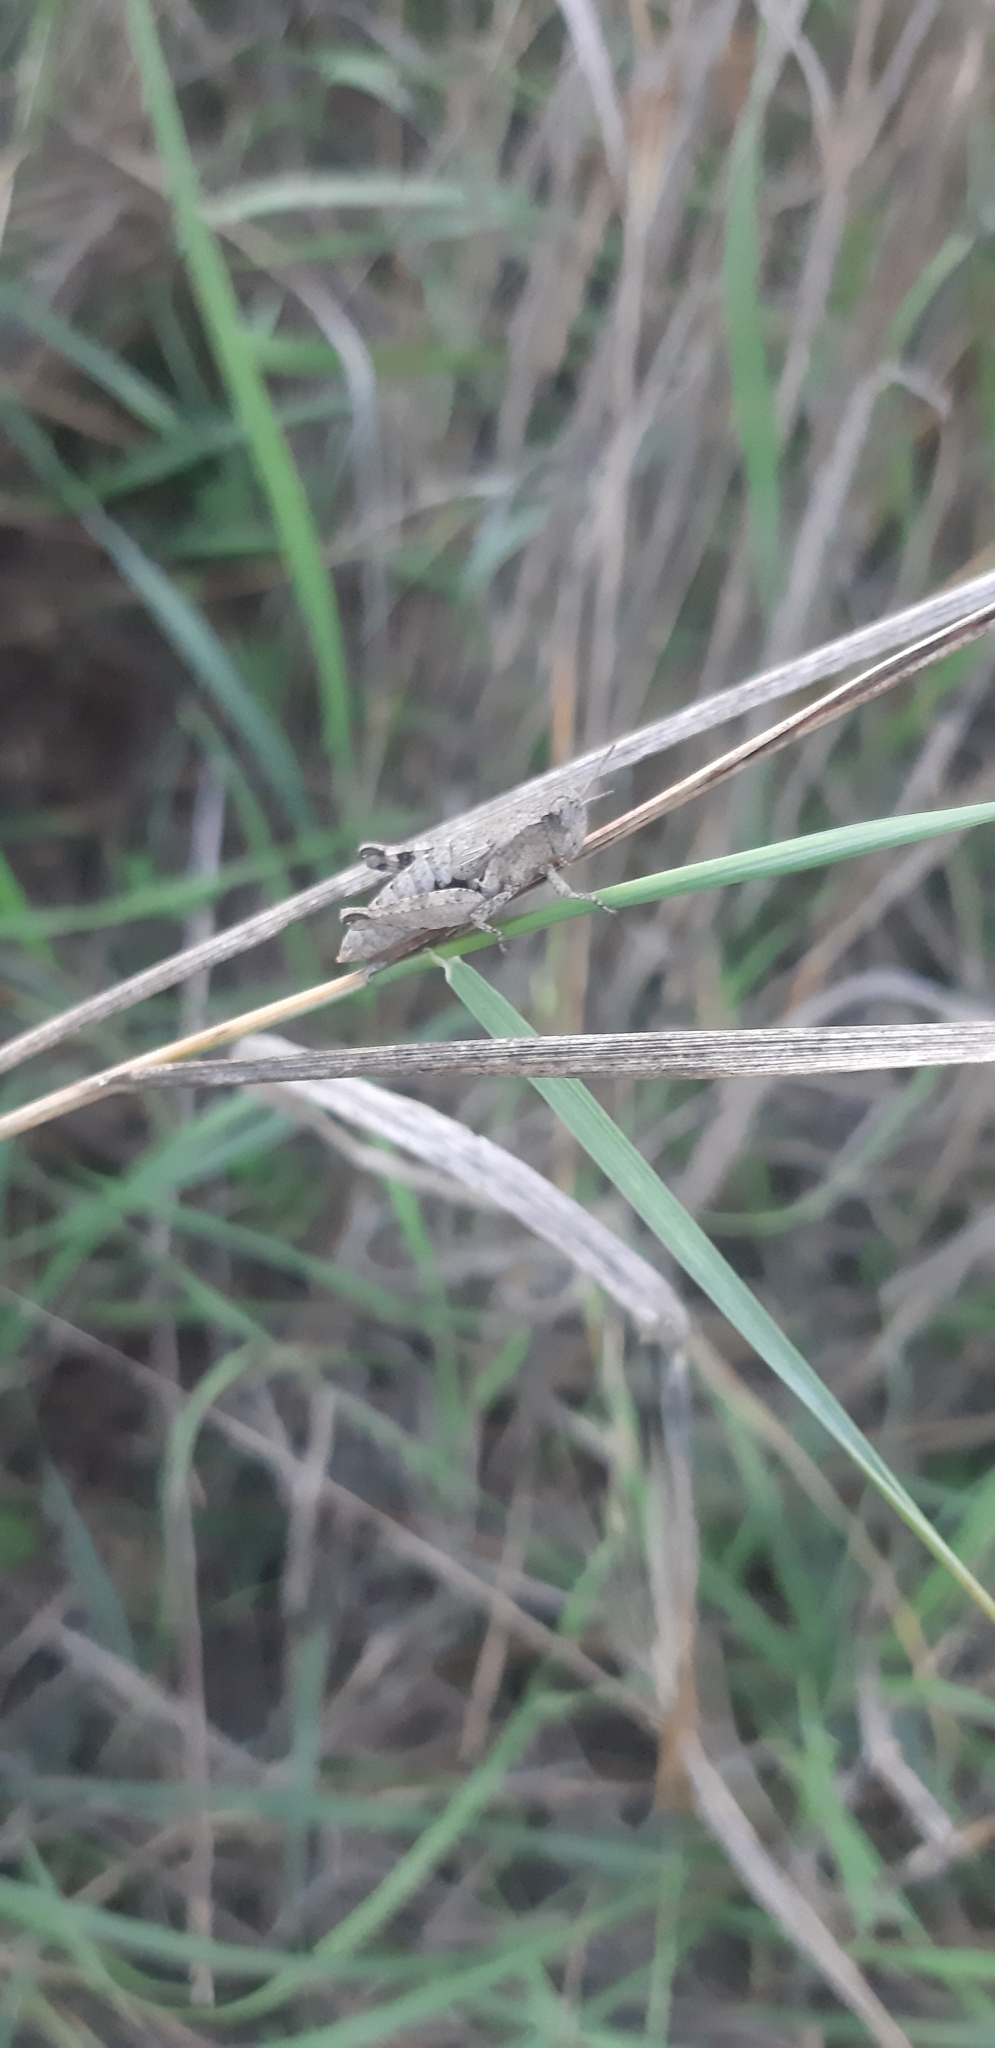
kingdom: Animalia
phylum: Arthropoda
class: Insecta
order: Orthoptera
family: Acrididae
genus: Pezotettix
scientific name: Pezotettix giornae
